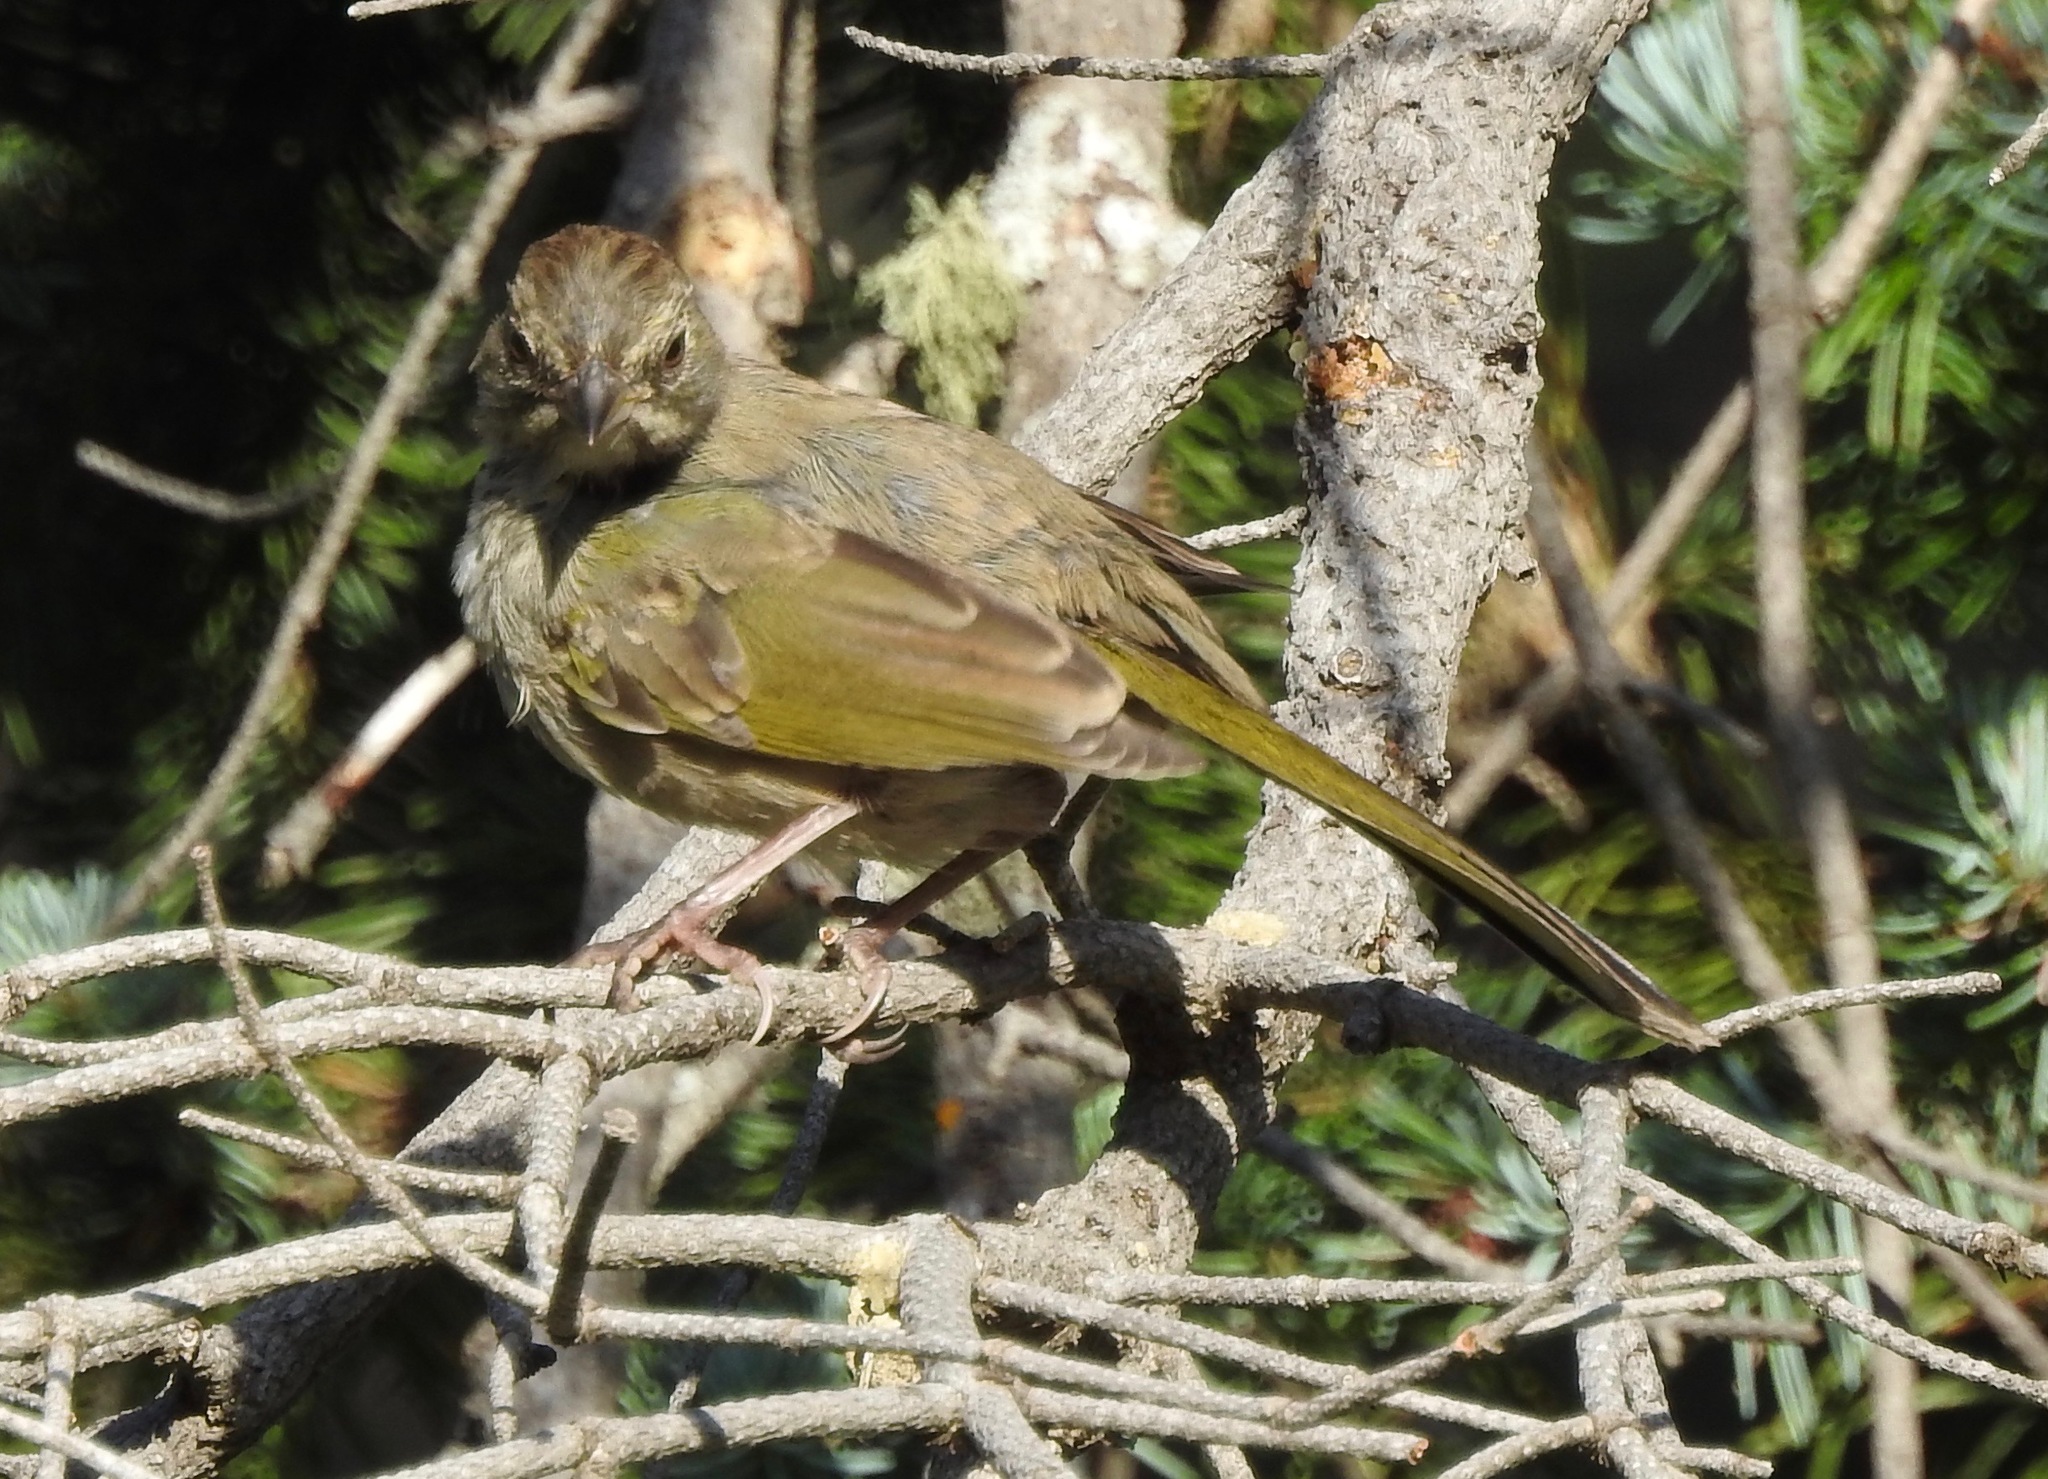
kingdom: Animalia
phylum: Chordata
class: Aves
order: Passeriformes
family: Passerellidae
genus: Pipilo
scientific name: Pipilo chlorurus
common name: Green-tailed towhee
